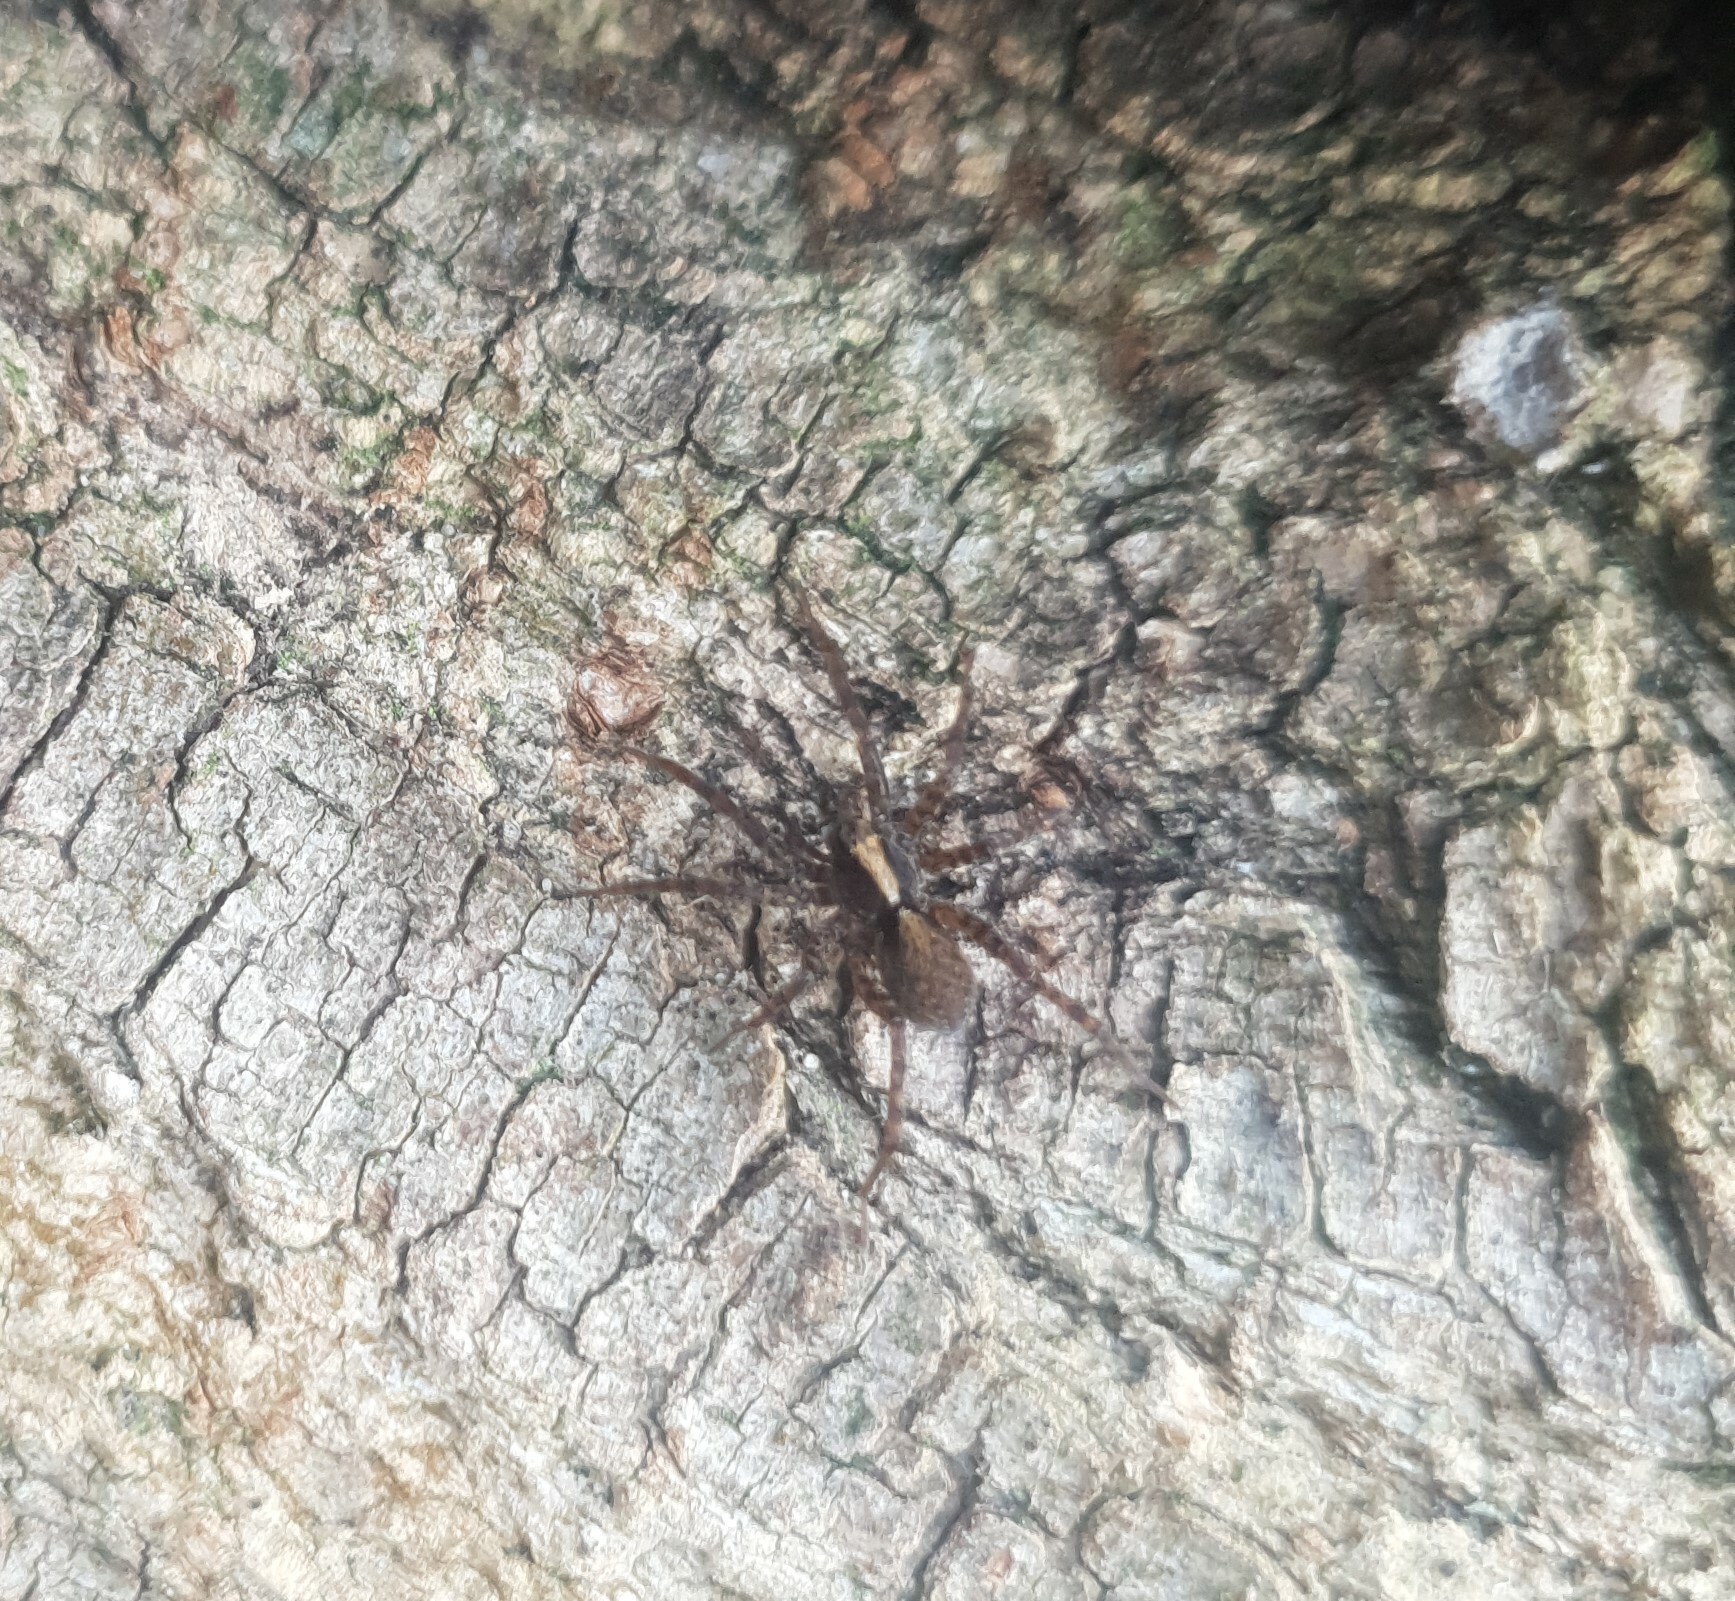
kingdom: Animalia
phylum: Arthropoda
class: Arachnida
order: Araneae
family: Lycosidae
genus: Pardosa
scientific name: Pardosa
